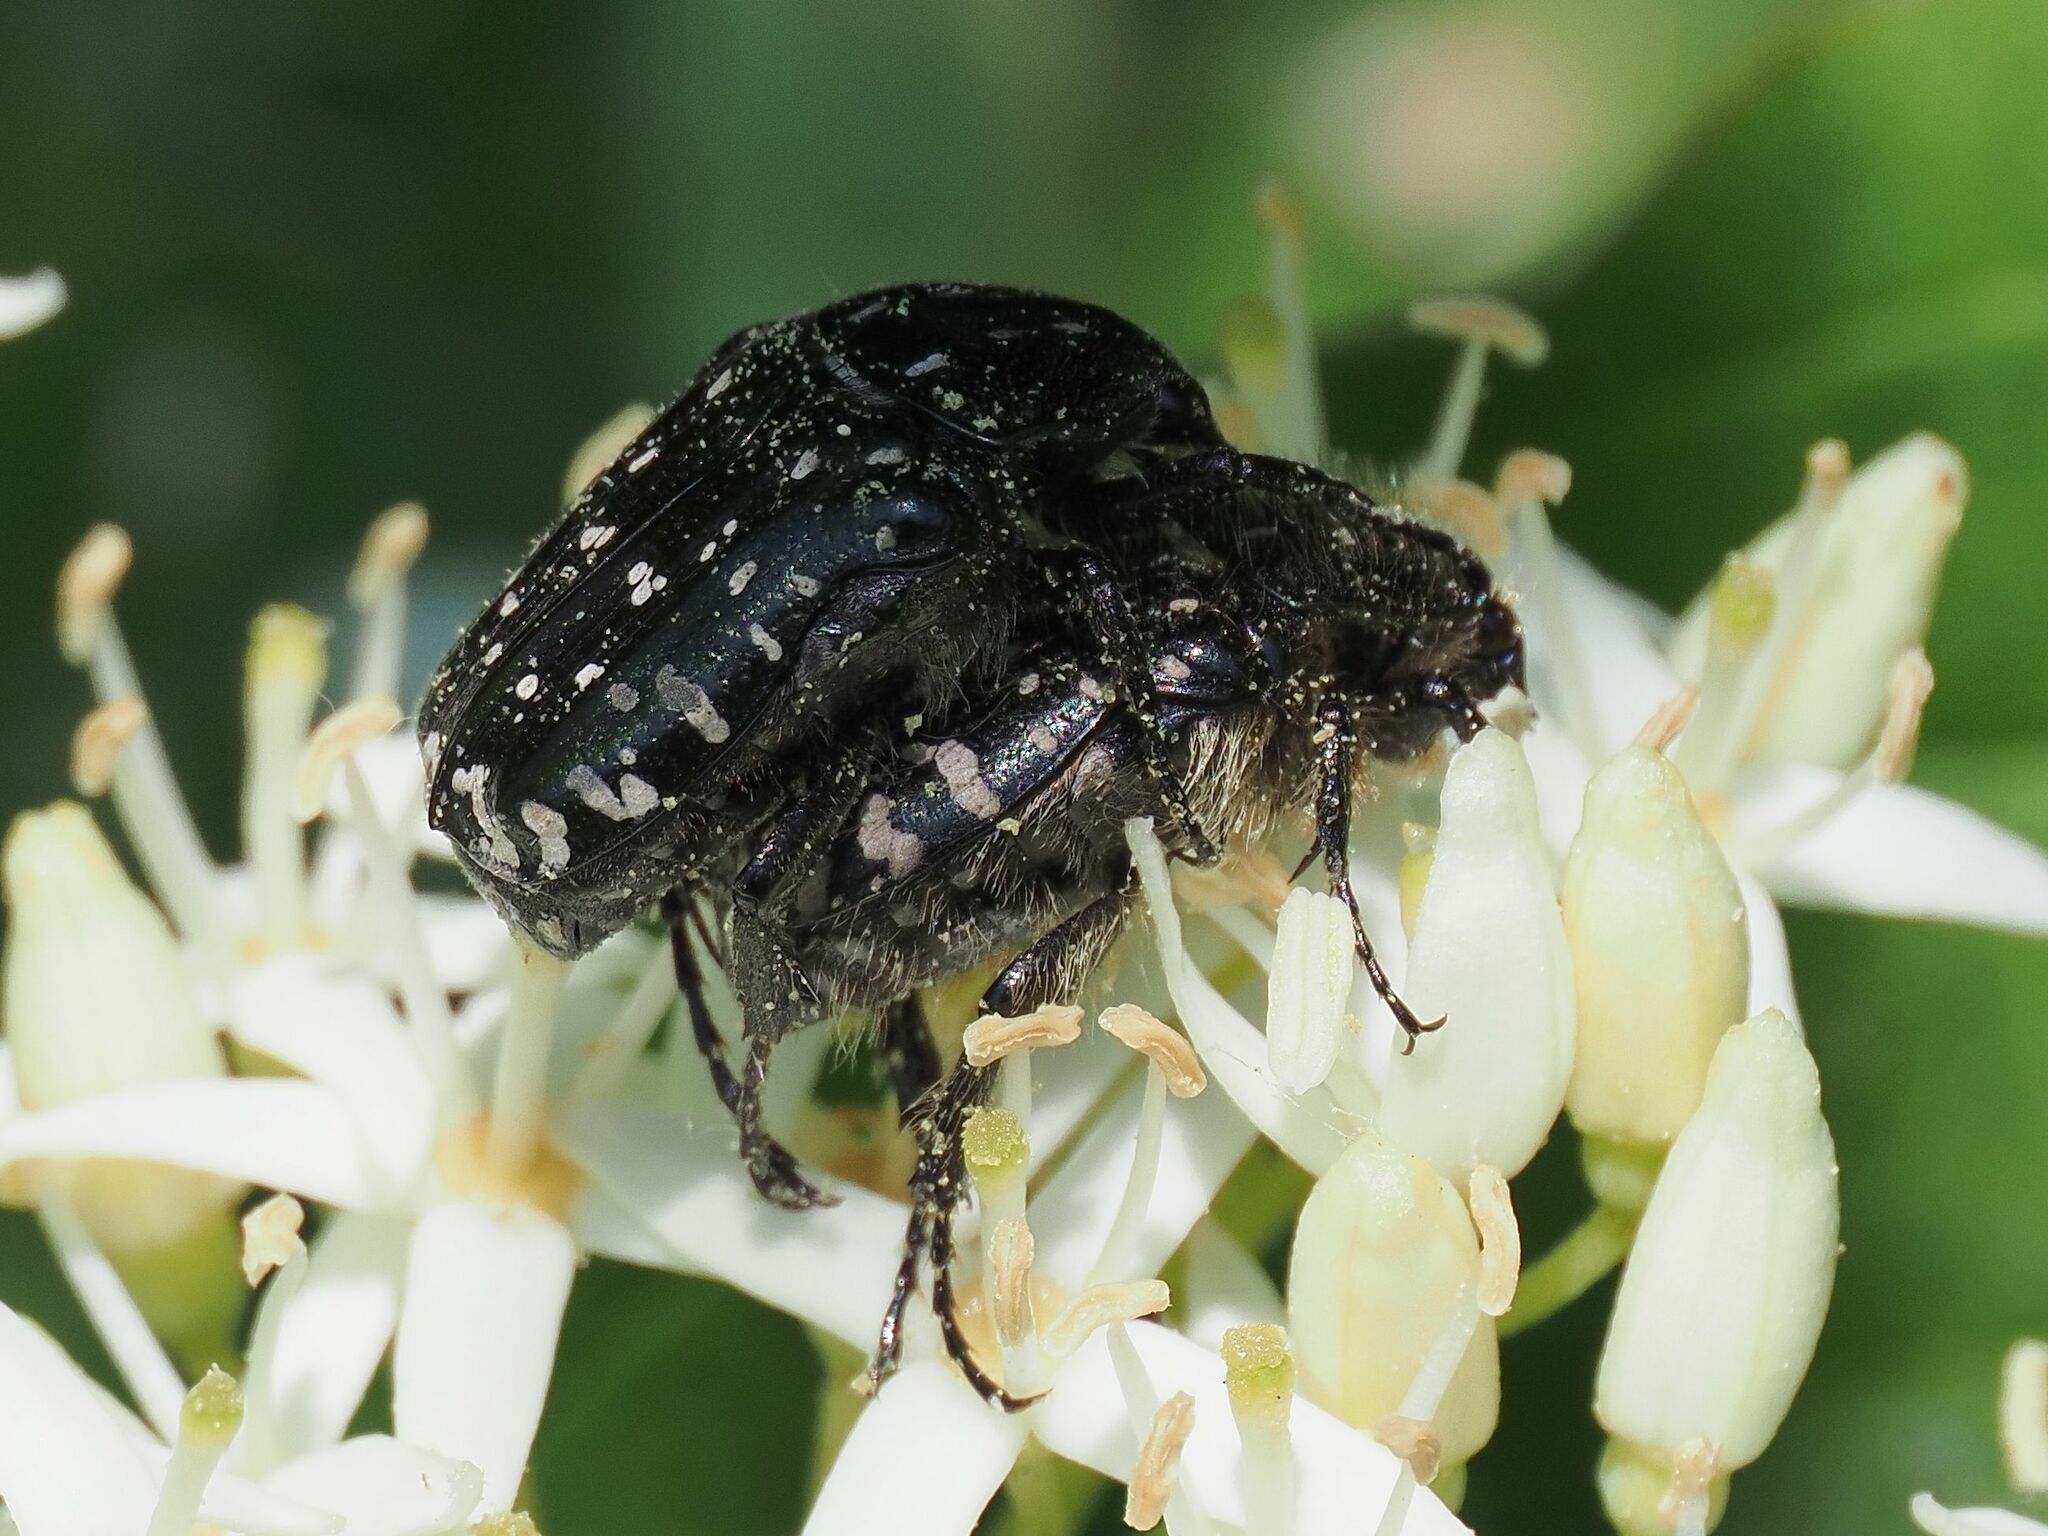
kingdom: Animalia
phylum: Arthropoda
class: Insecta
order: Coleoptera
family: Scarabaeidae
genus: Oxythyrea
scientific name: Oxythyrea funesta
